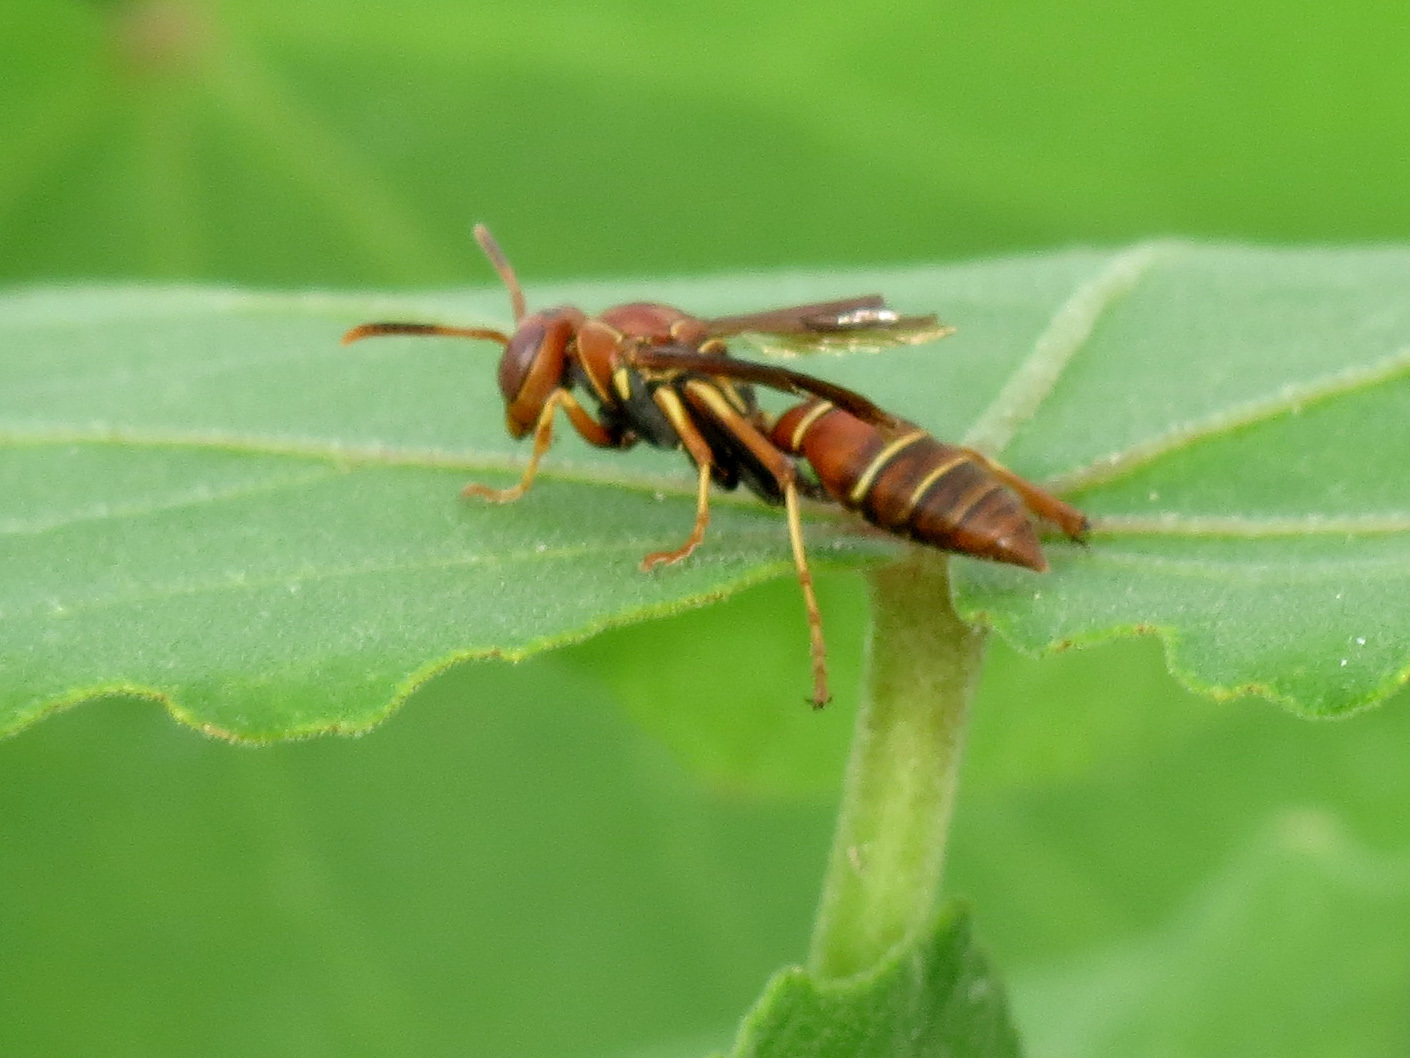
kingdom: Animalia
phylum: Arthropoda
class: Insecta
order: Hymenoptera
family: Eumenidae
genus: Polistes
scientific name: Polistes dorsalis
